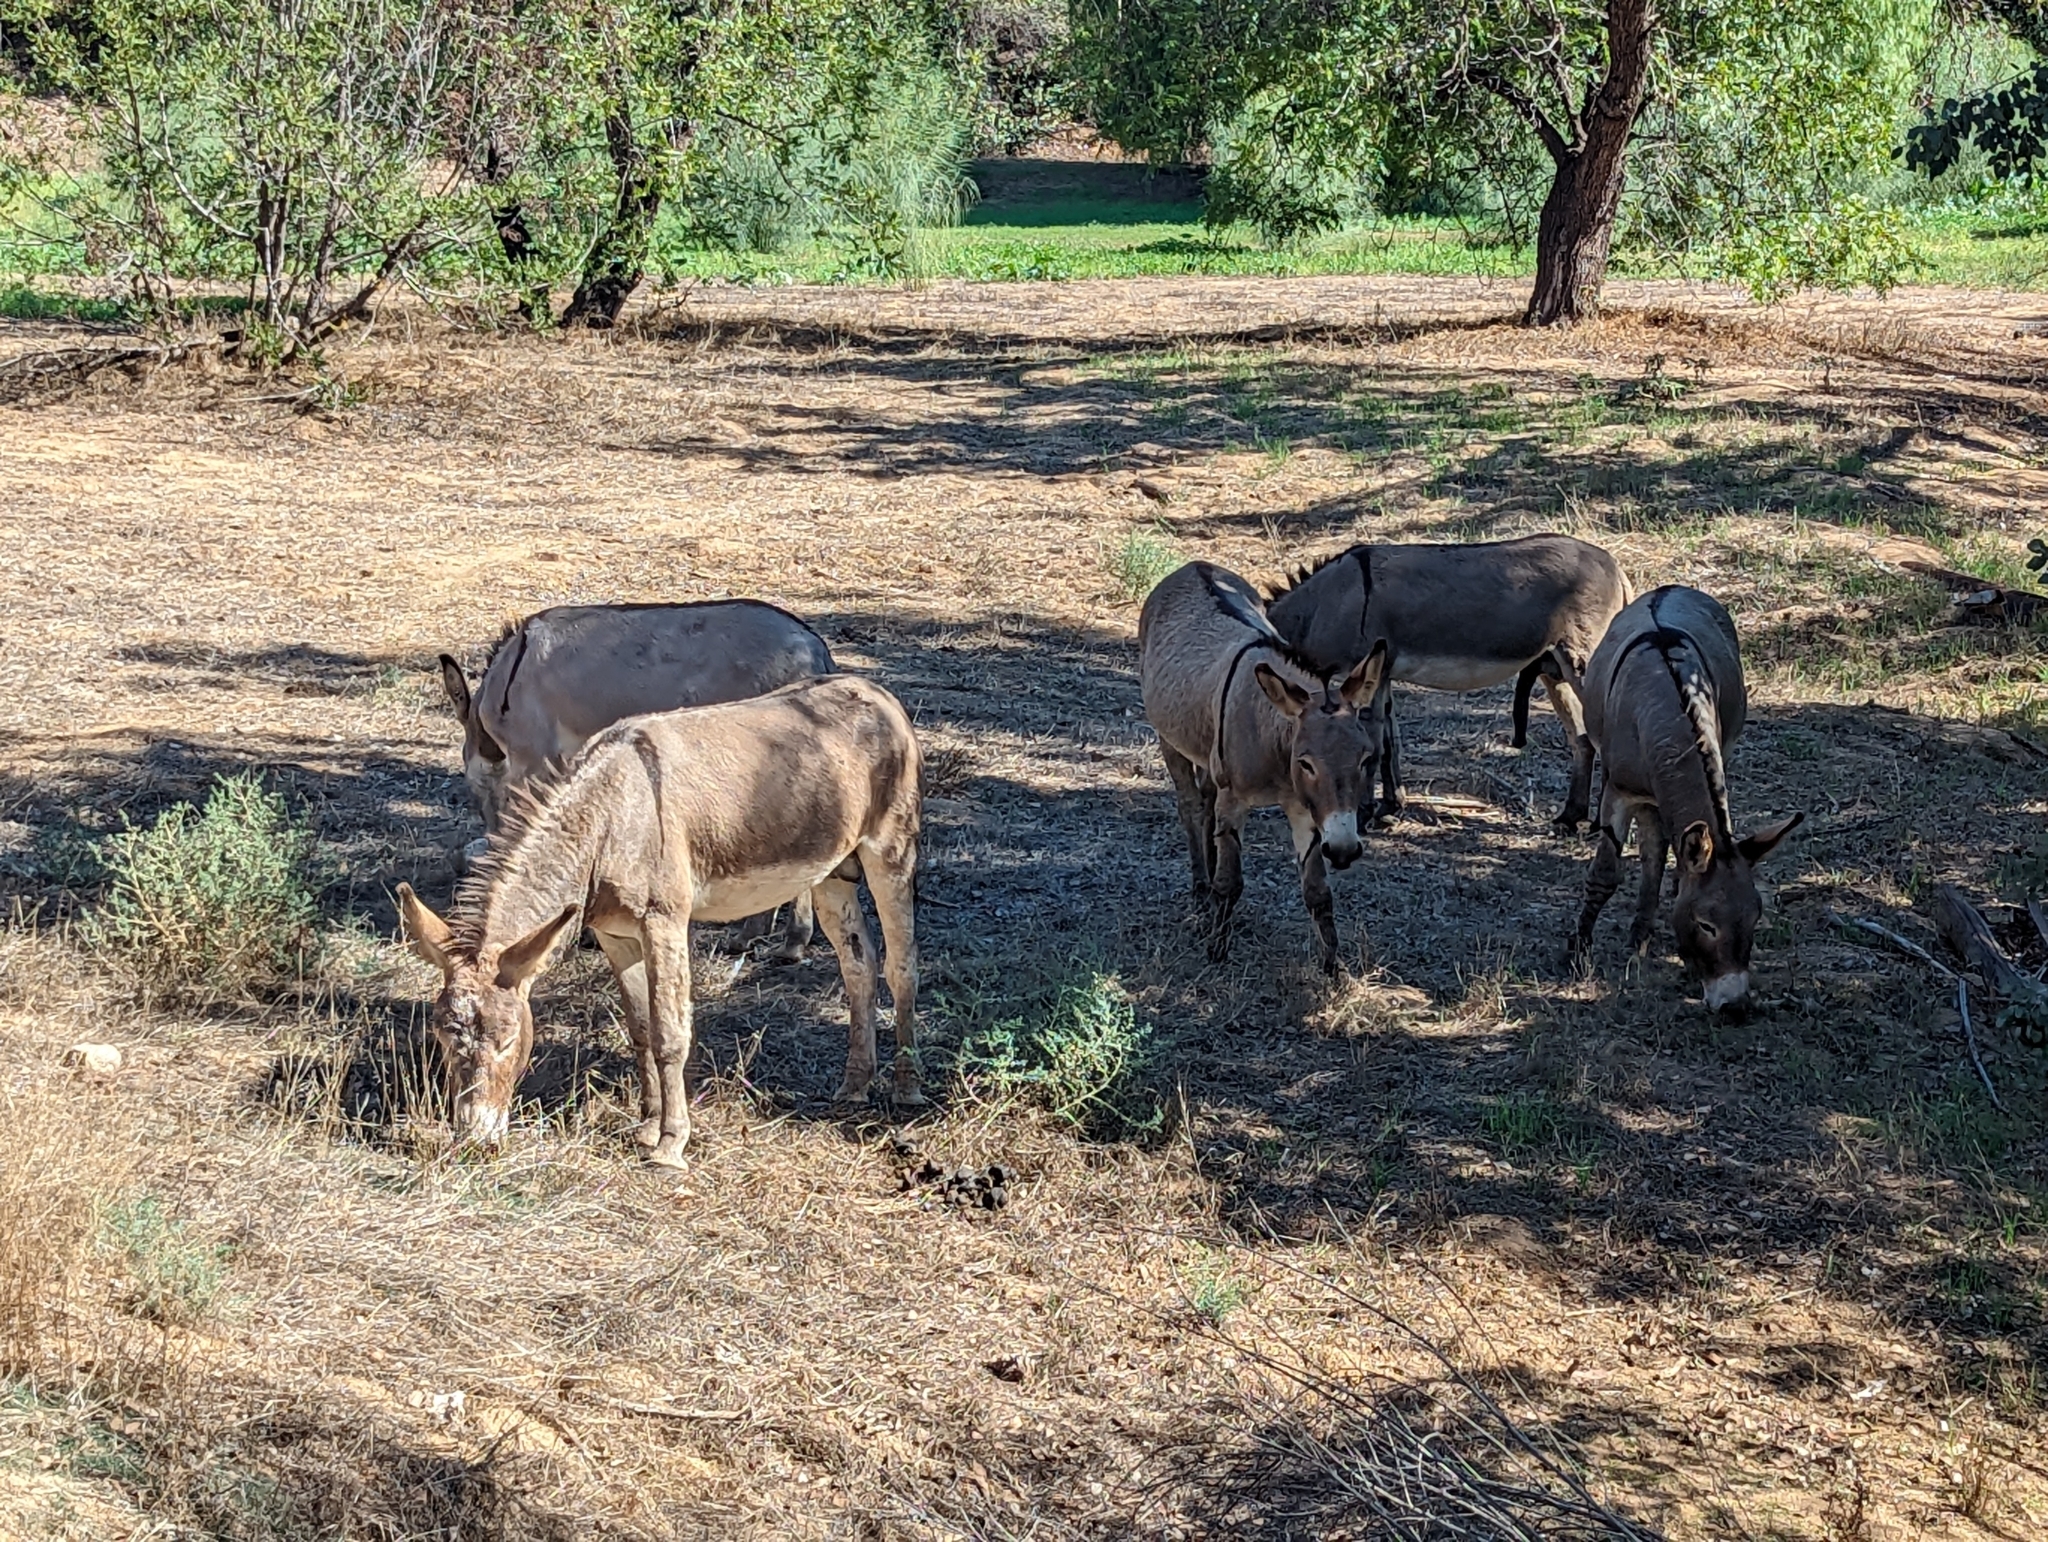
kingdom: Animalia
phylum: Chordata
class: Mammalia
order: Perissodactyla
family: Equidae
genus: Equus
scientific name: Equus asinus
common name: Ass
